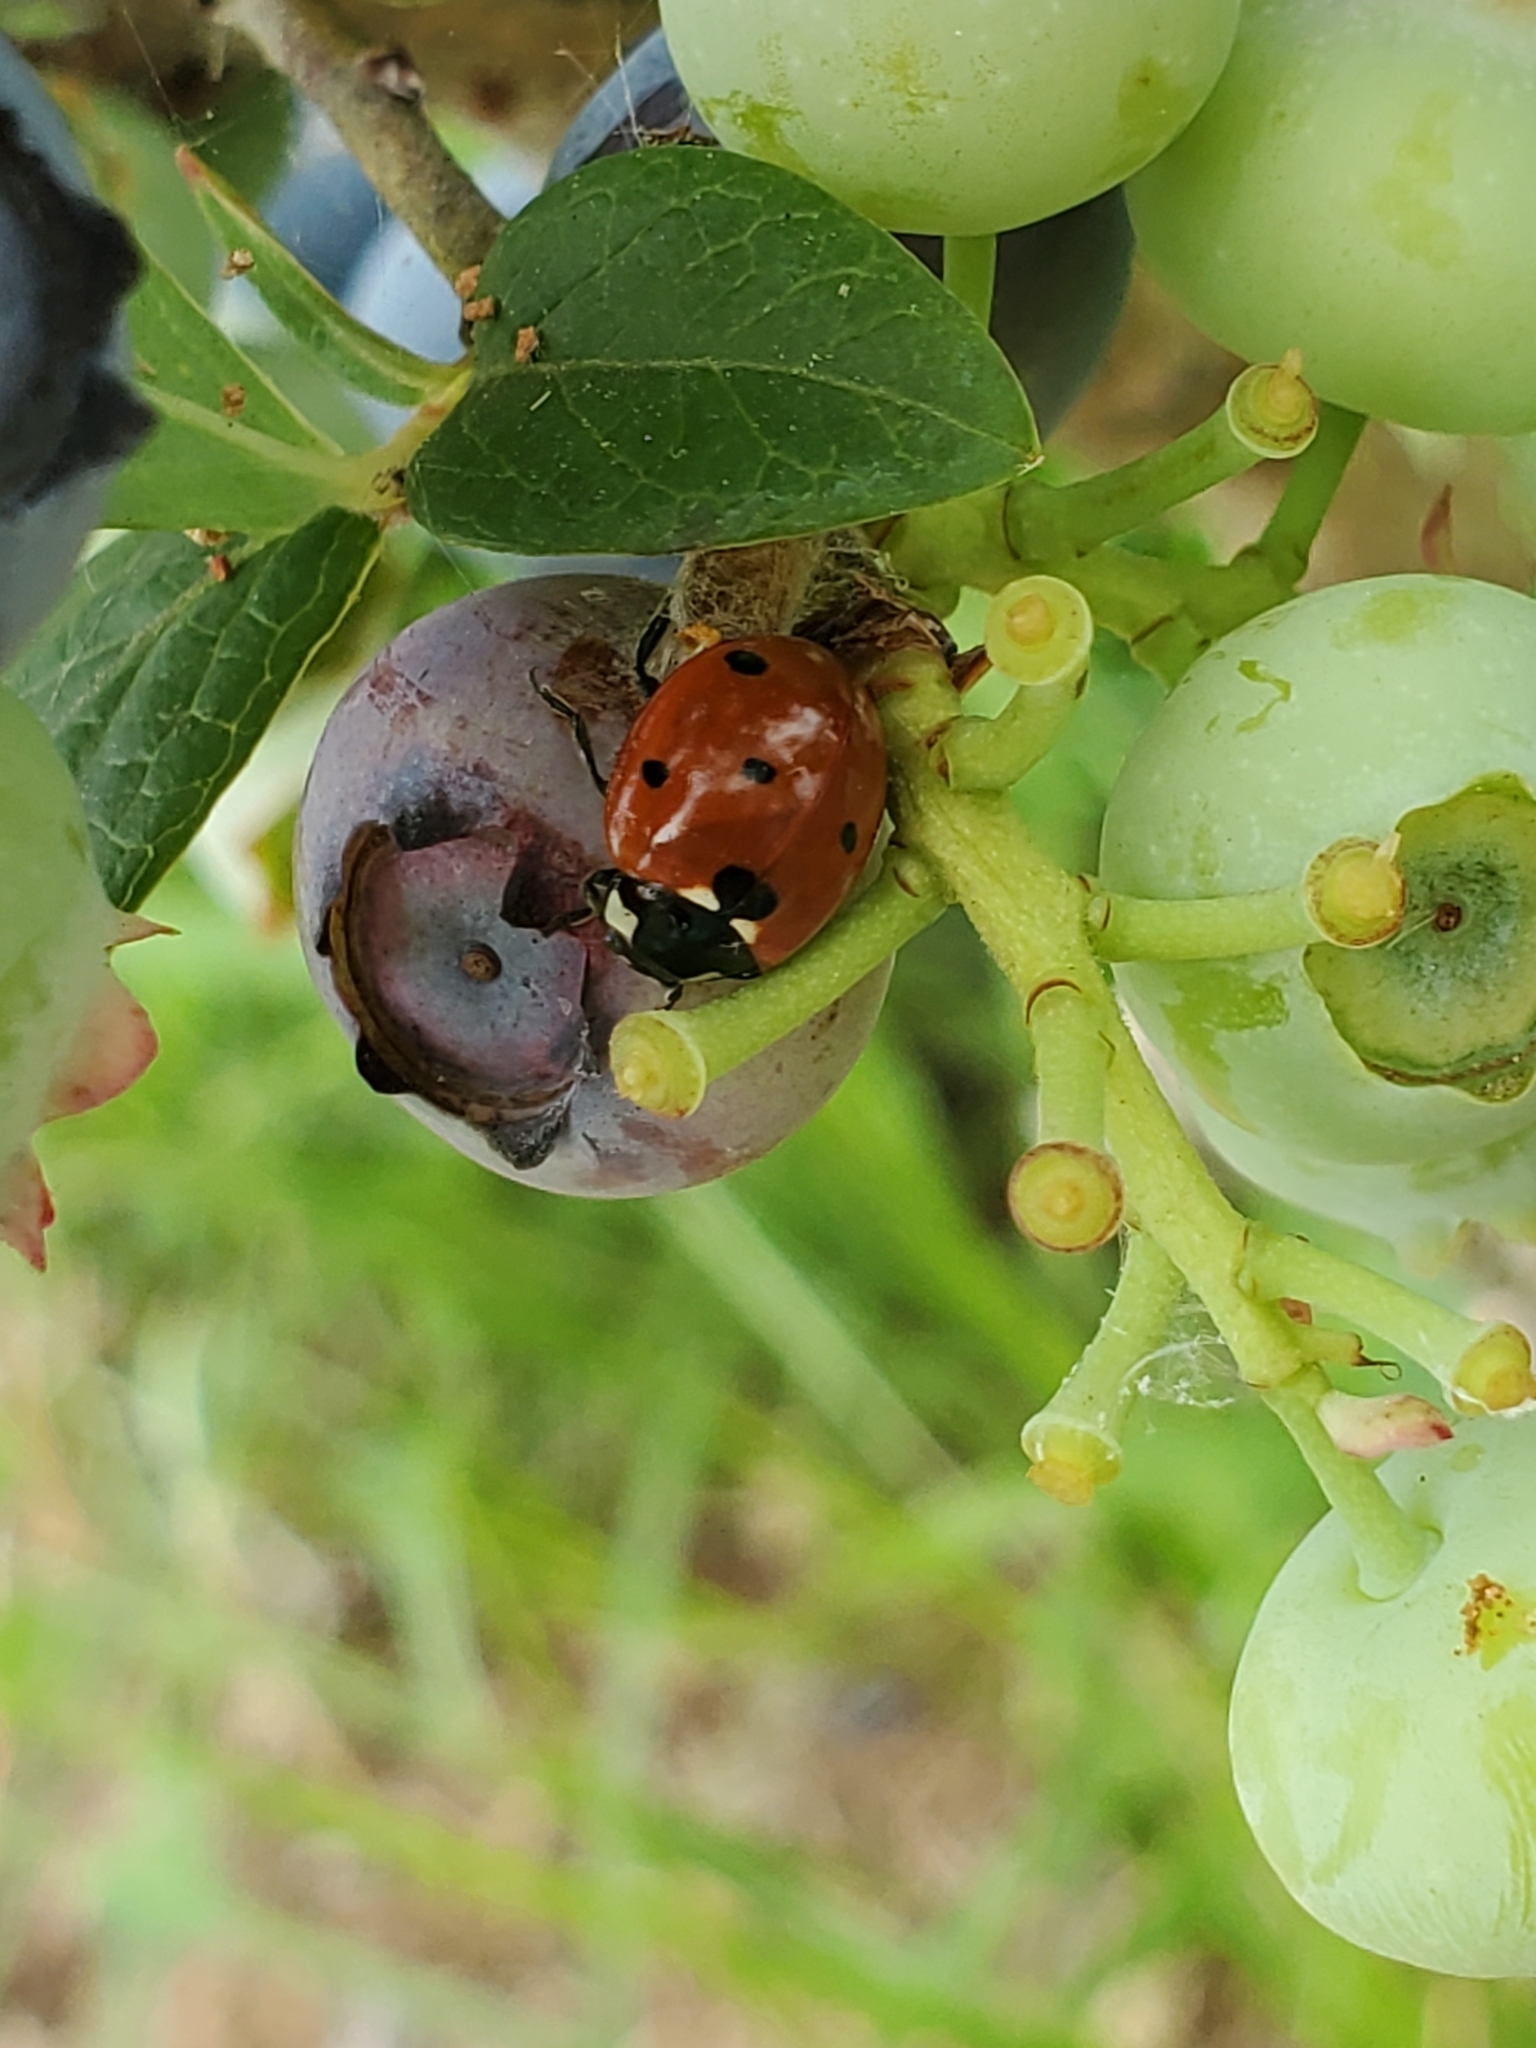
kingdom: Animalia
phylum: Arthropoda
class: Insecta
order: Coleoptera
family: Coccinellidae
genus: Coccinella
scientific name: Coccinella septempunctata
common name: Sevenspotted lady beetle
